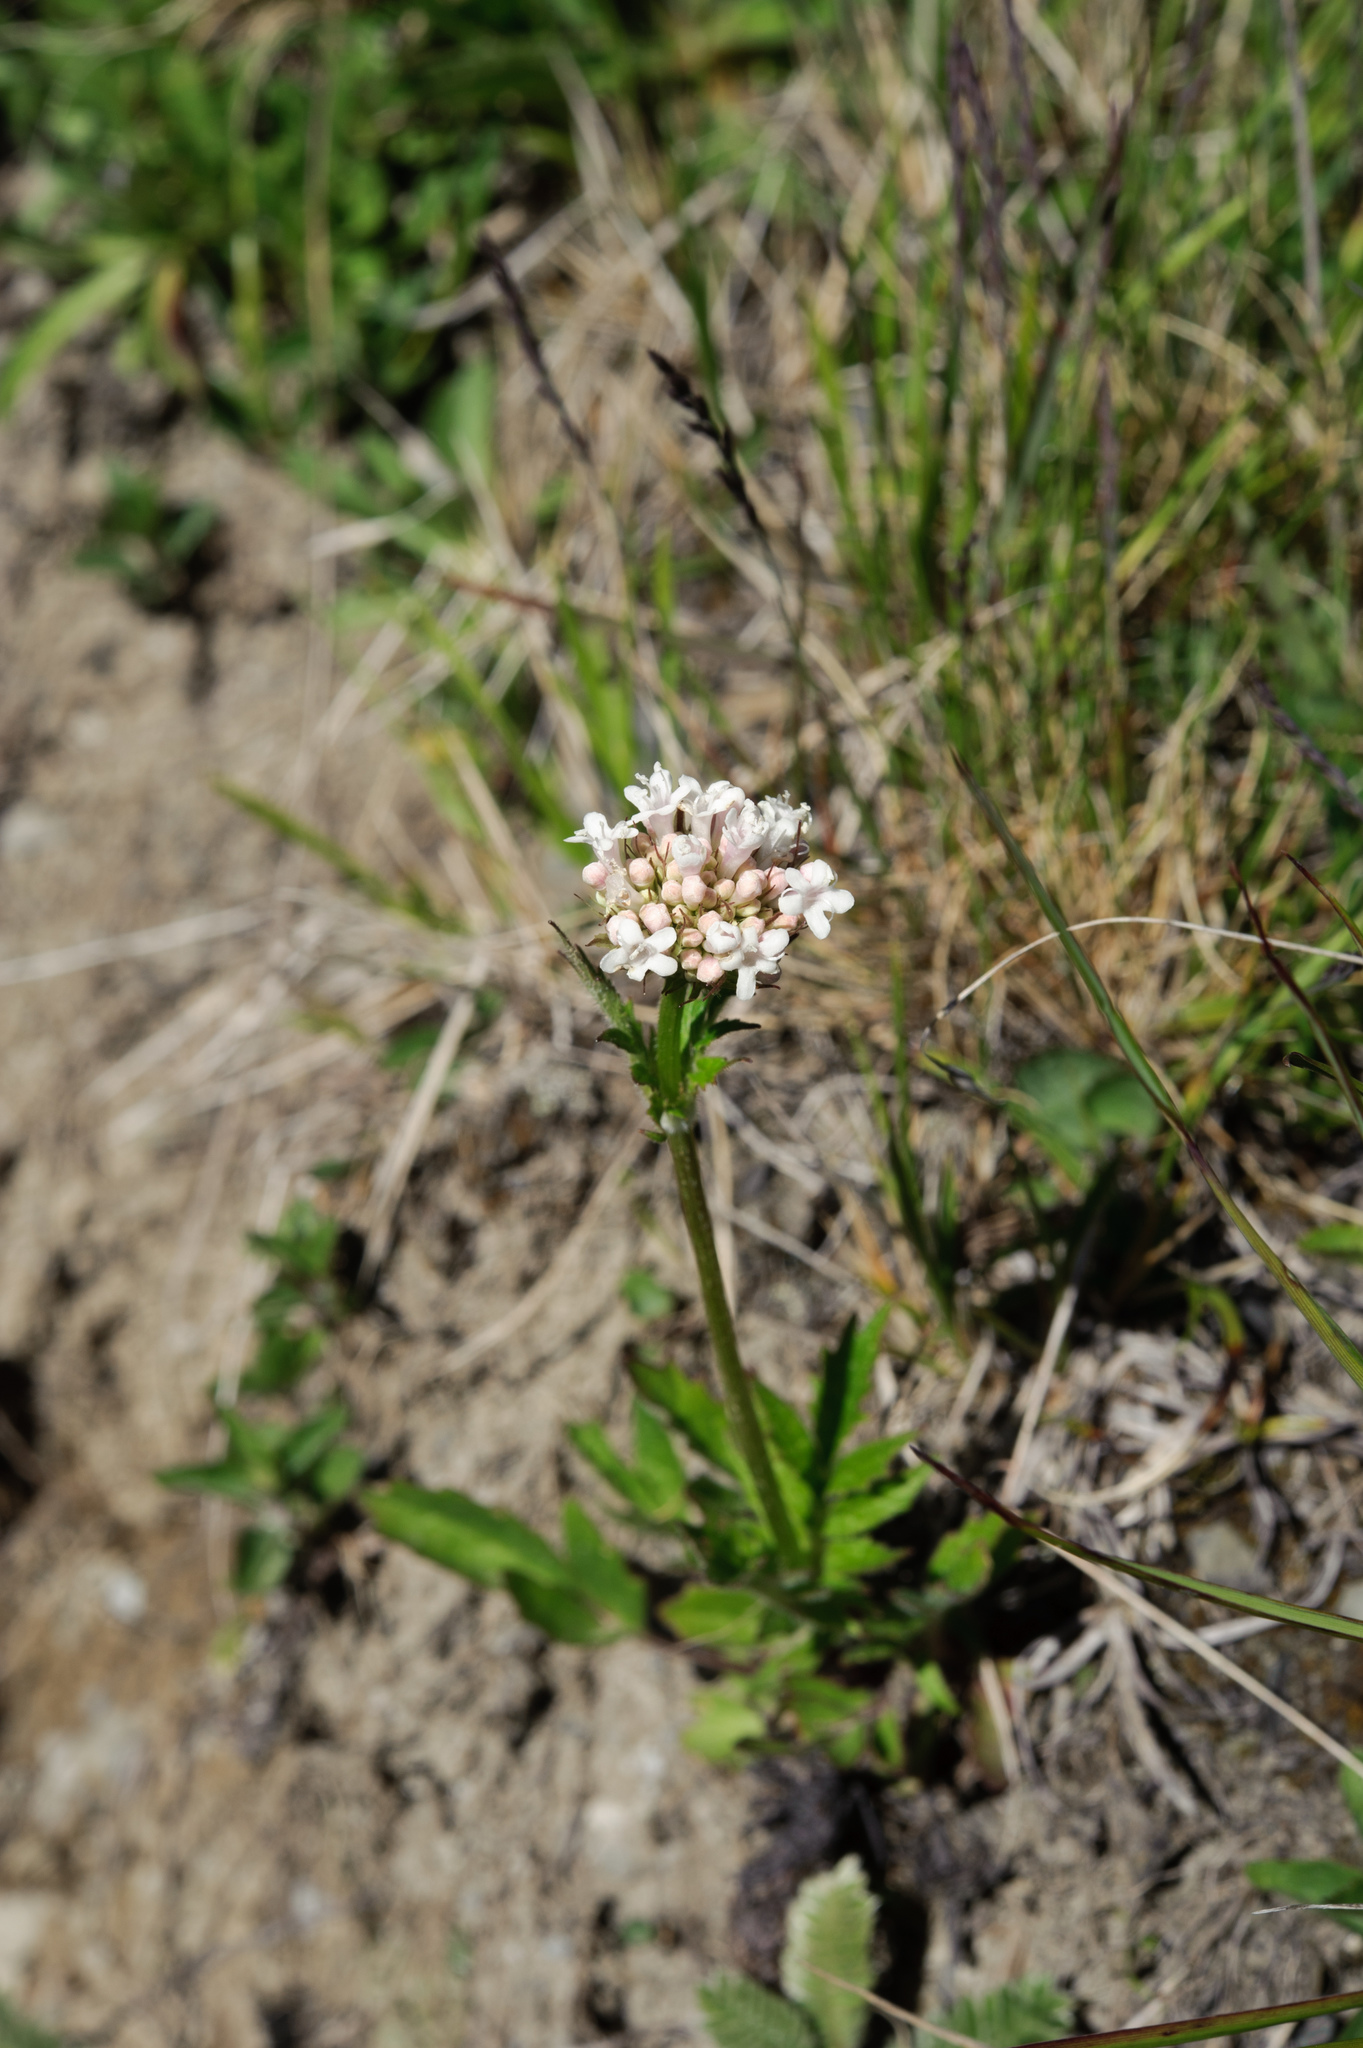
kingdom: Plantae
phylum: Tracheophyta
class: Magnoliopsida
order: Dipsacales
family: Caprifoliaceae
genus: Valeriana
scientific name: Valeriana officinalis
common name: Common valerian
